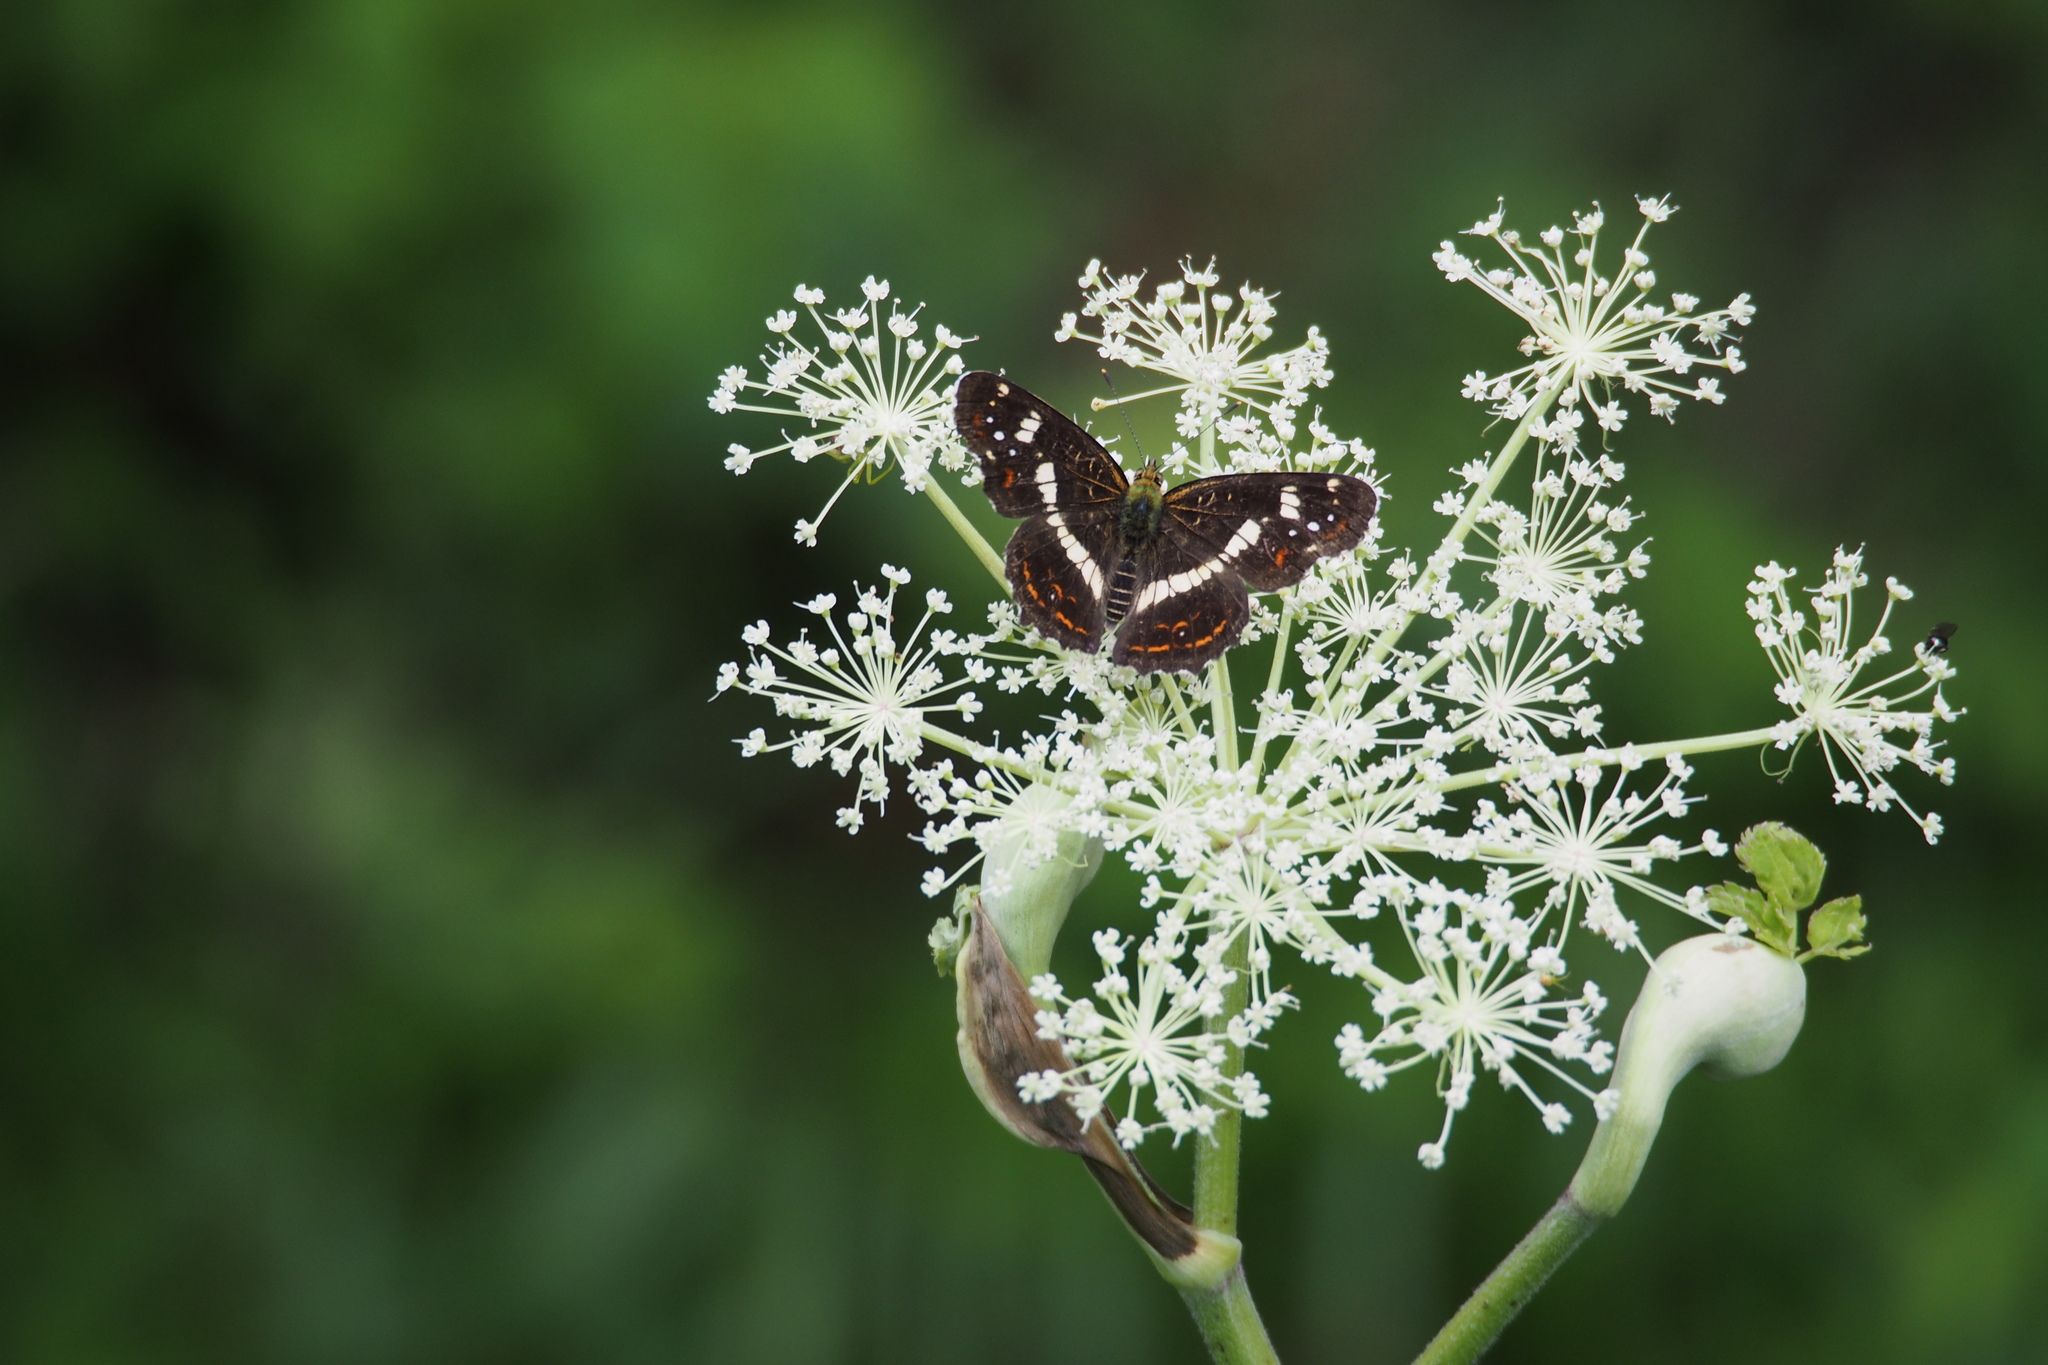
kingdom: Animalia
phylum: Arthropoda
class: Insecta
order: Lepidoptera
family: Nymphalidae
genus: Araschnia
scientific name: Araschnia burejana
